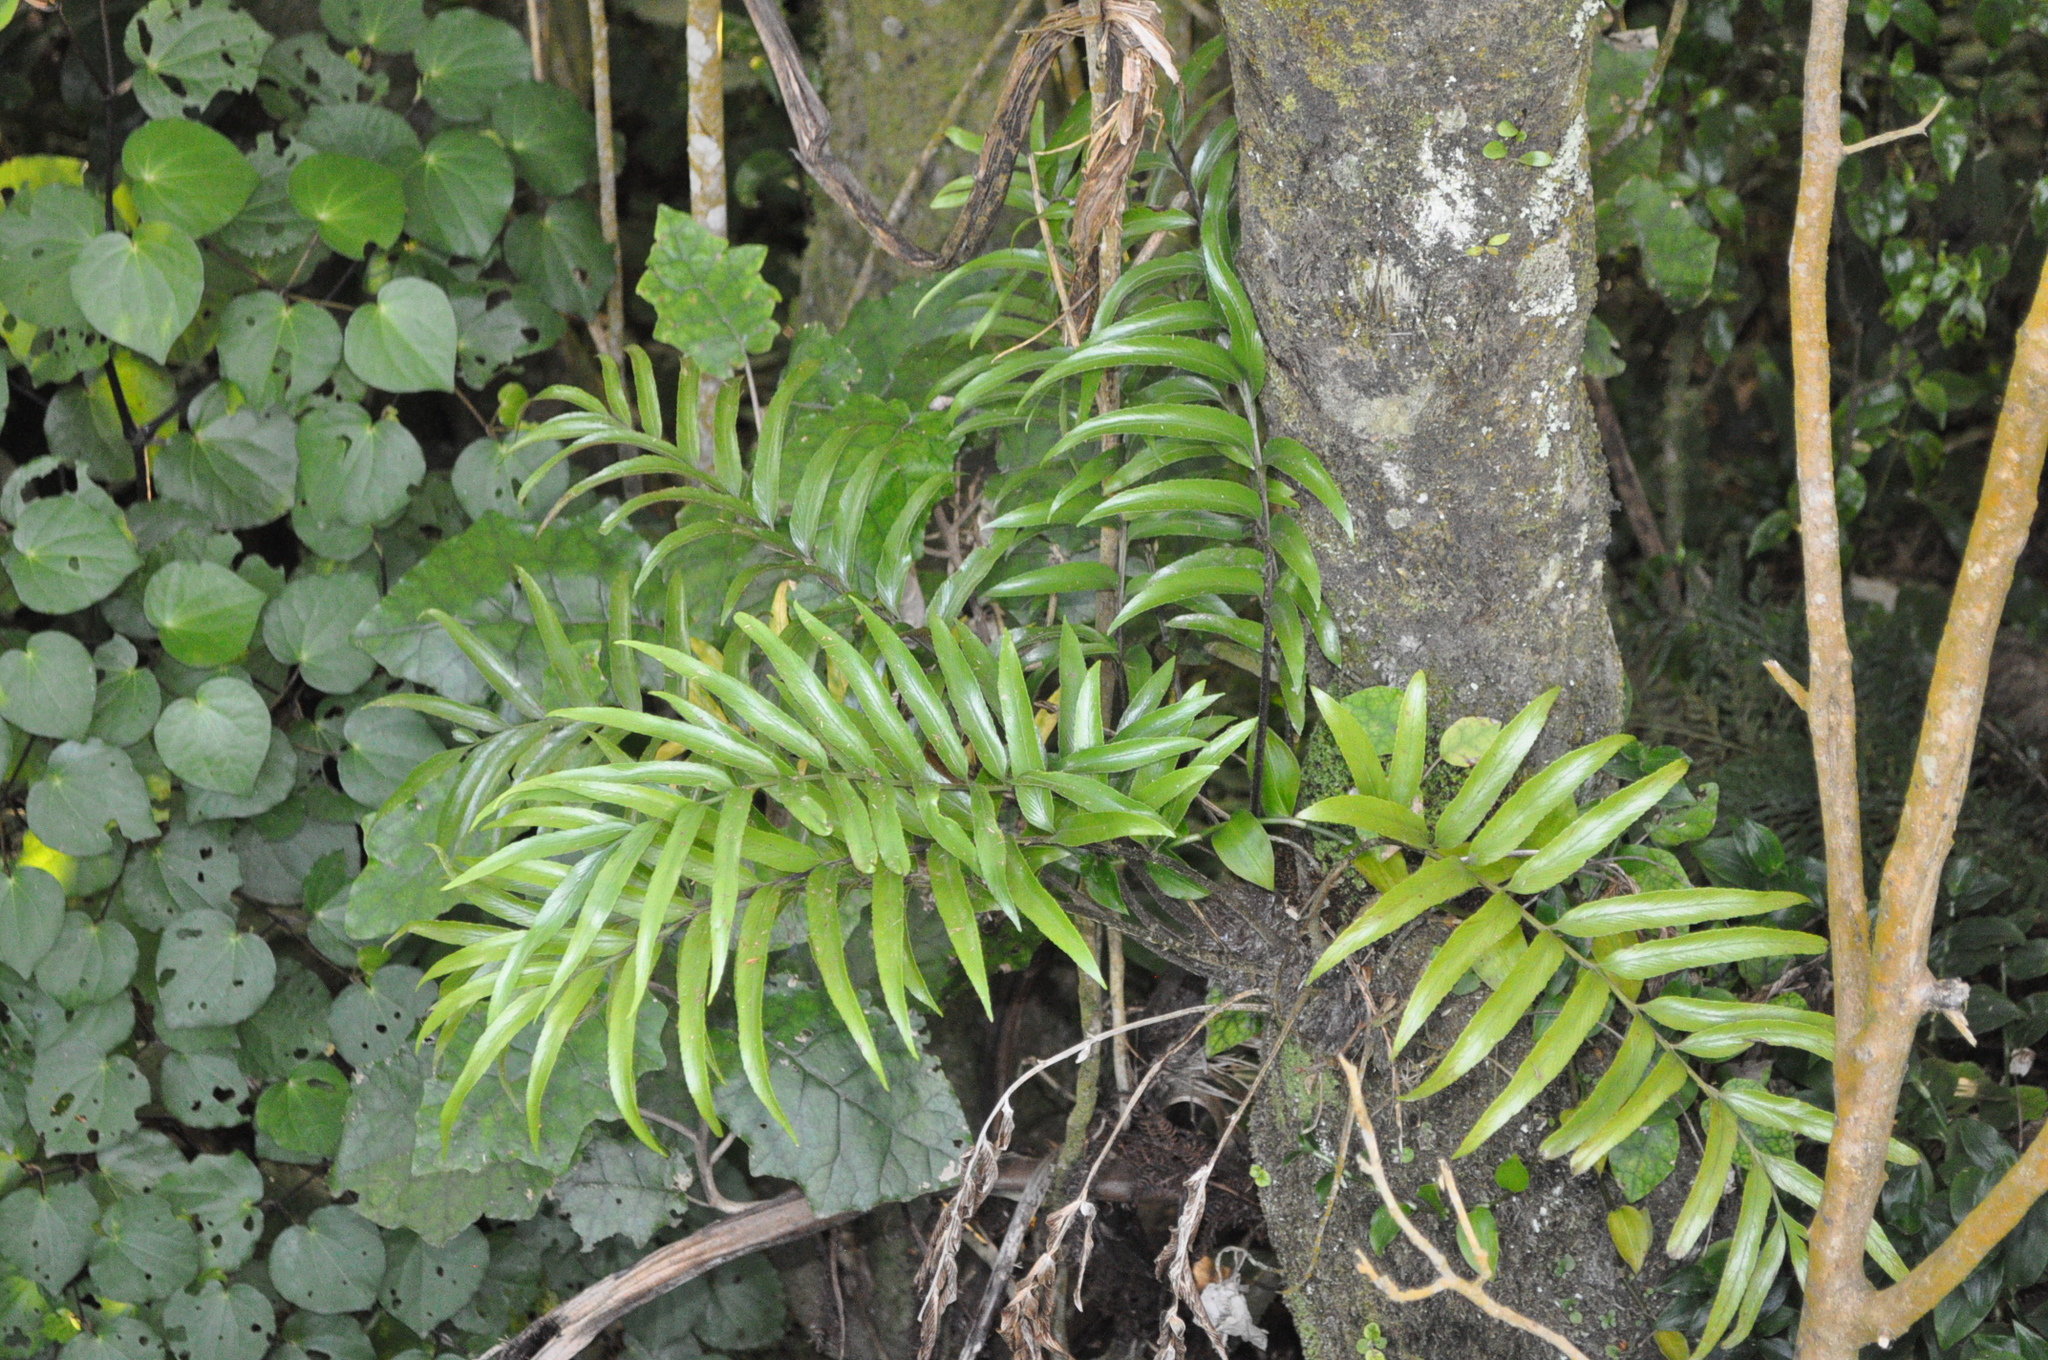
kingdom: Plantae
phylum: Tracheophyta
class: Polypodiopsida
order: Polypodiales
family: Aspleniaceae
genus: Asplenium
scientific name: Asplenium oblongifolium
